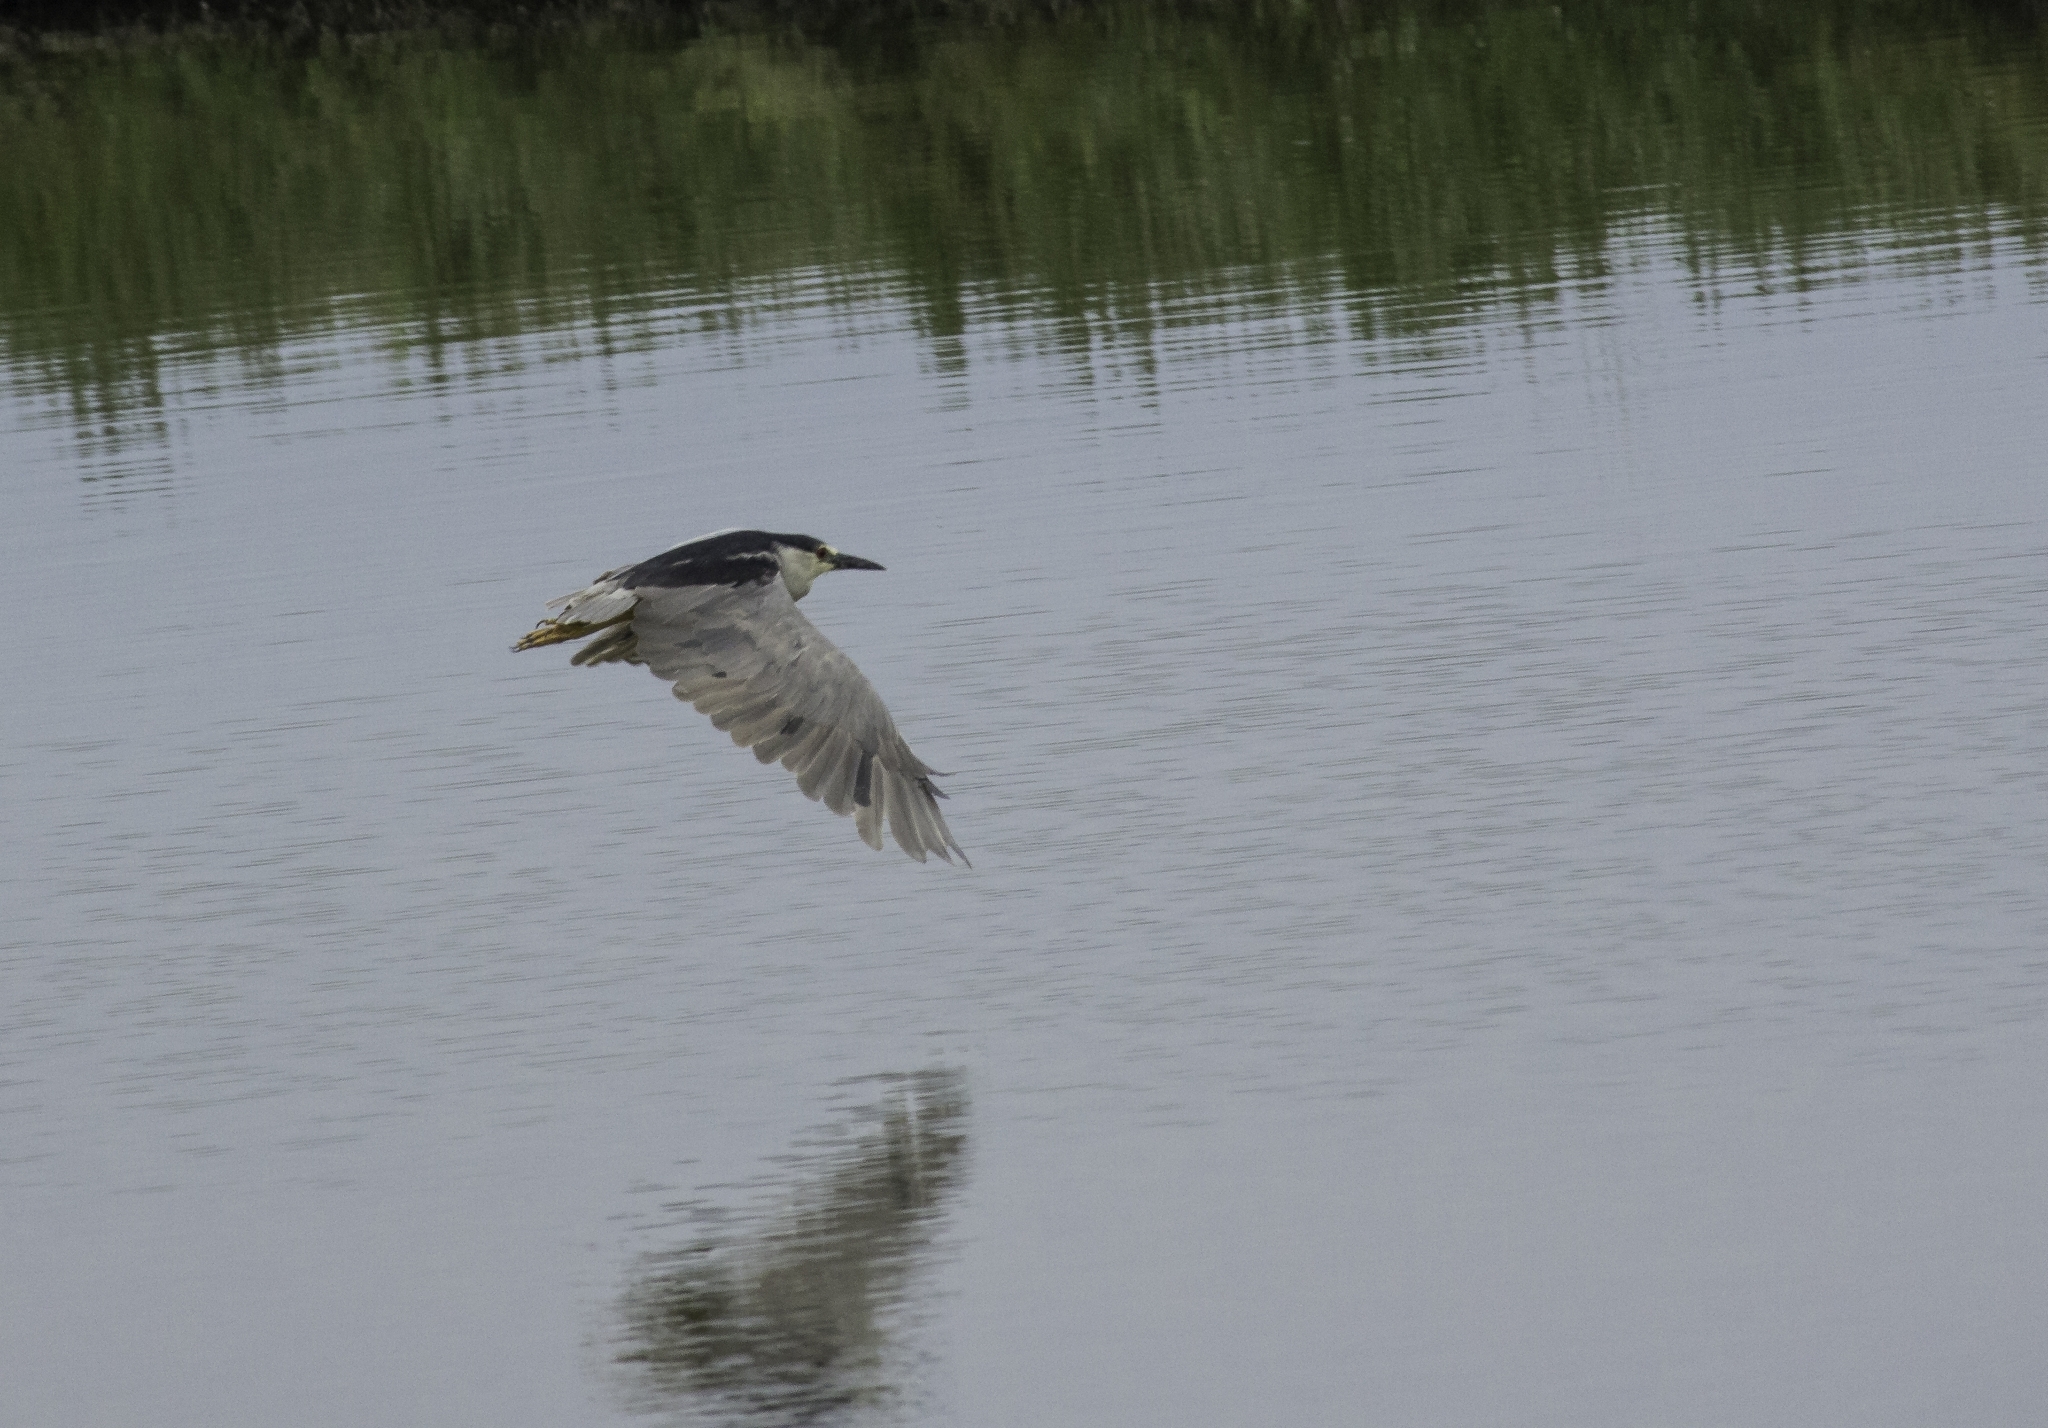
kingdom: Animalia
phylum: Chordata
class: Aves
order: Pelecaniformes
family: Ardeidae
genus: Nycticorax
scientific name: Nycticorax nycticorax
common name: Black-crowned night heron
